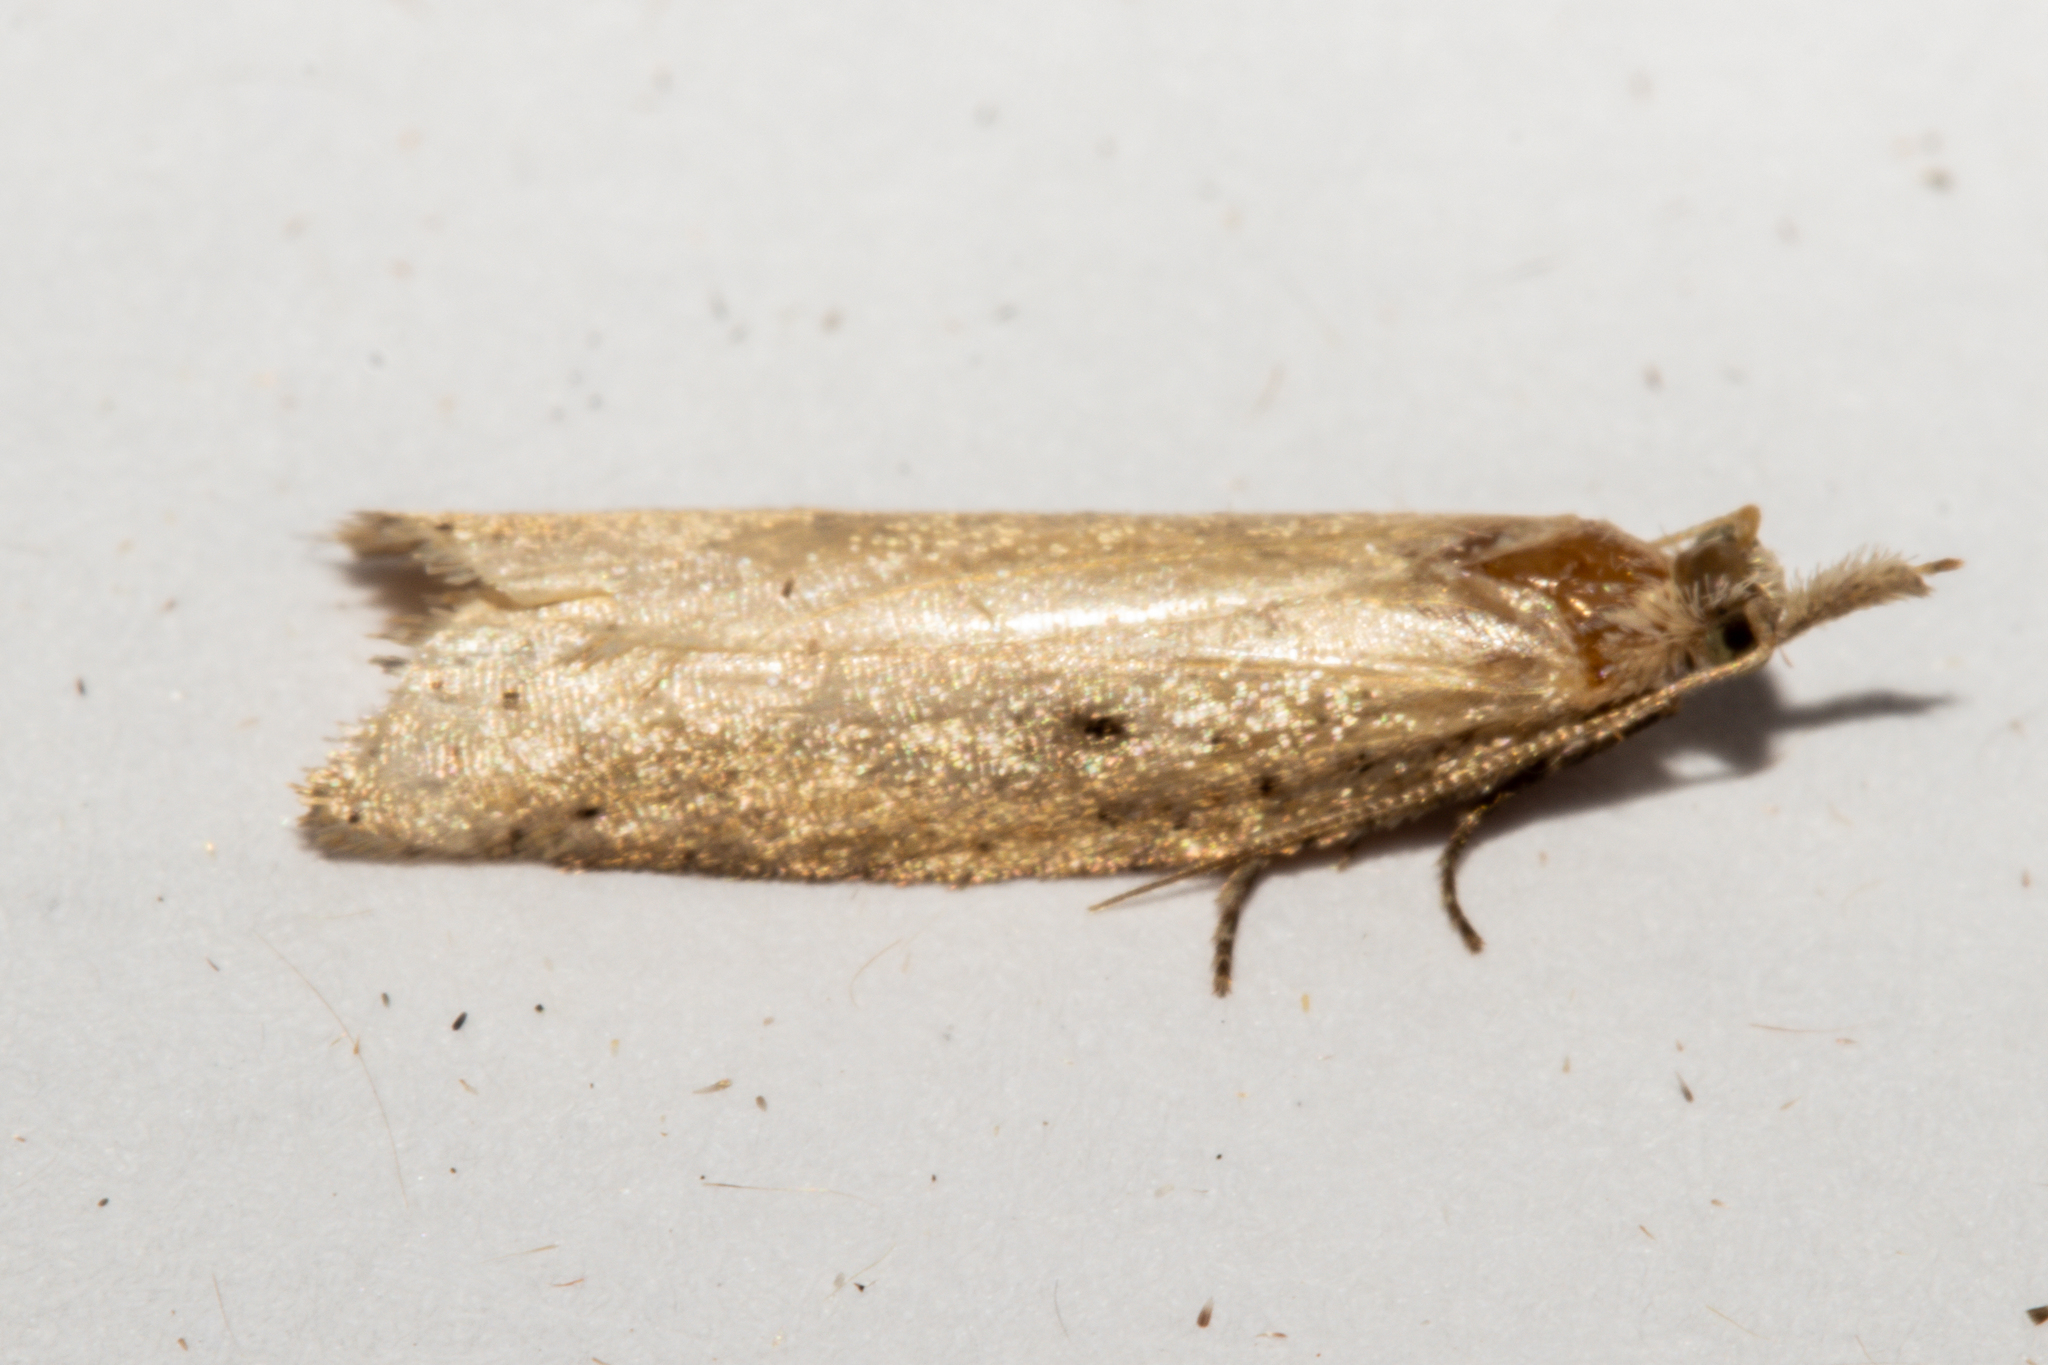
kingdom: Animalia
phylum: Arthropoda
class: Insecta
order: Lepidoptera
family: Tortricidae
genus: Prothelymna
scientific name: Prothelymna antiquana
